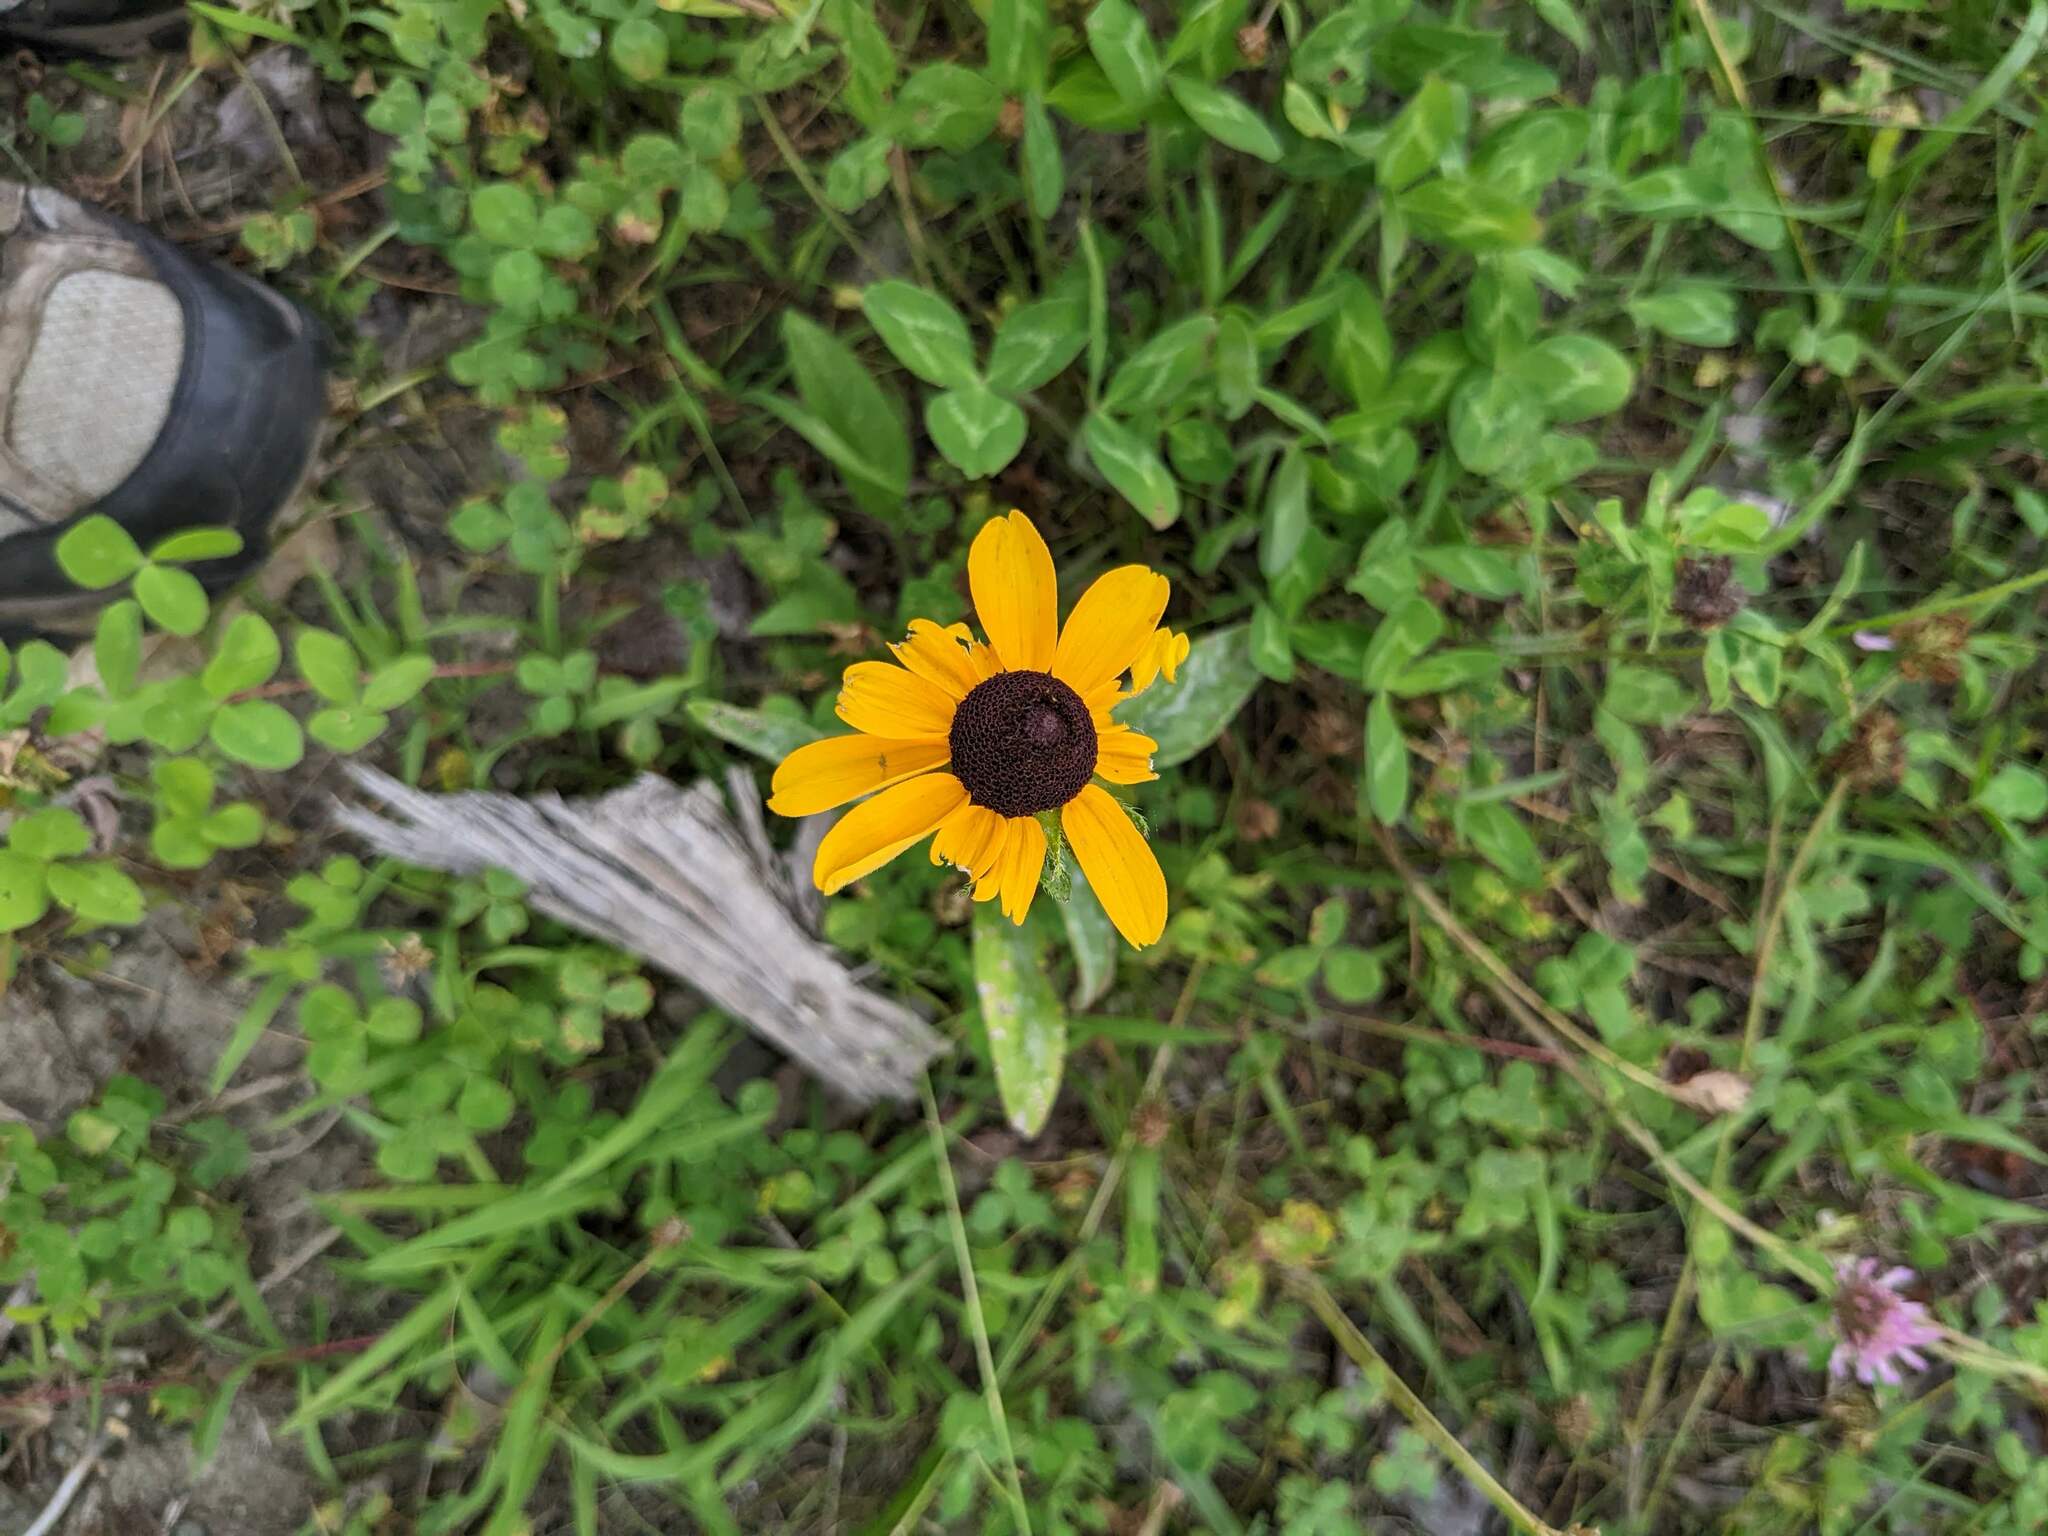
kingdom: Plantae
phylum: Tracheophyta
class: Magnoliopsida
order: Asterales
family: Asteraceae
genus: Rudbeckia
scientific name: Rudbeckia hirta
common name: Black-eyed-susan
